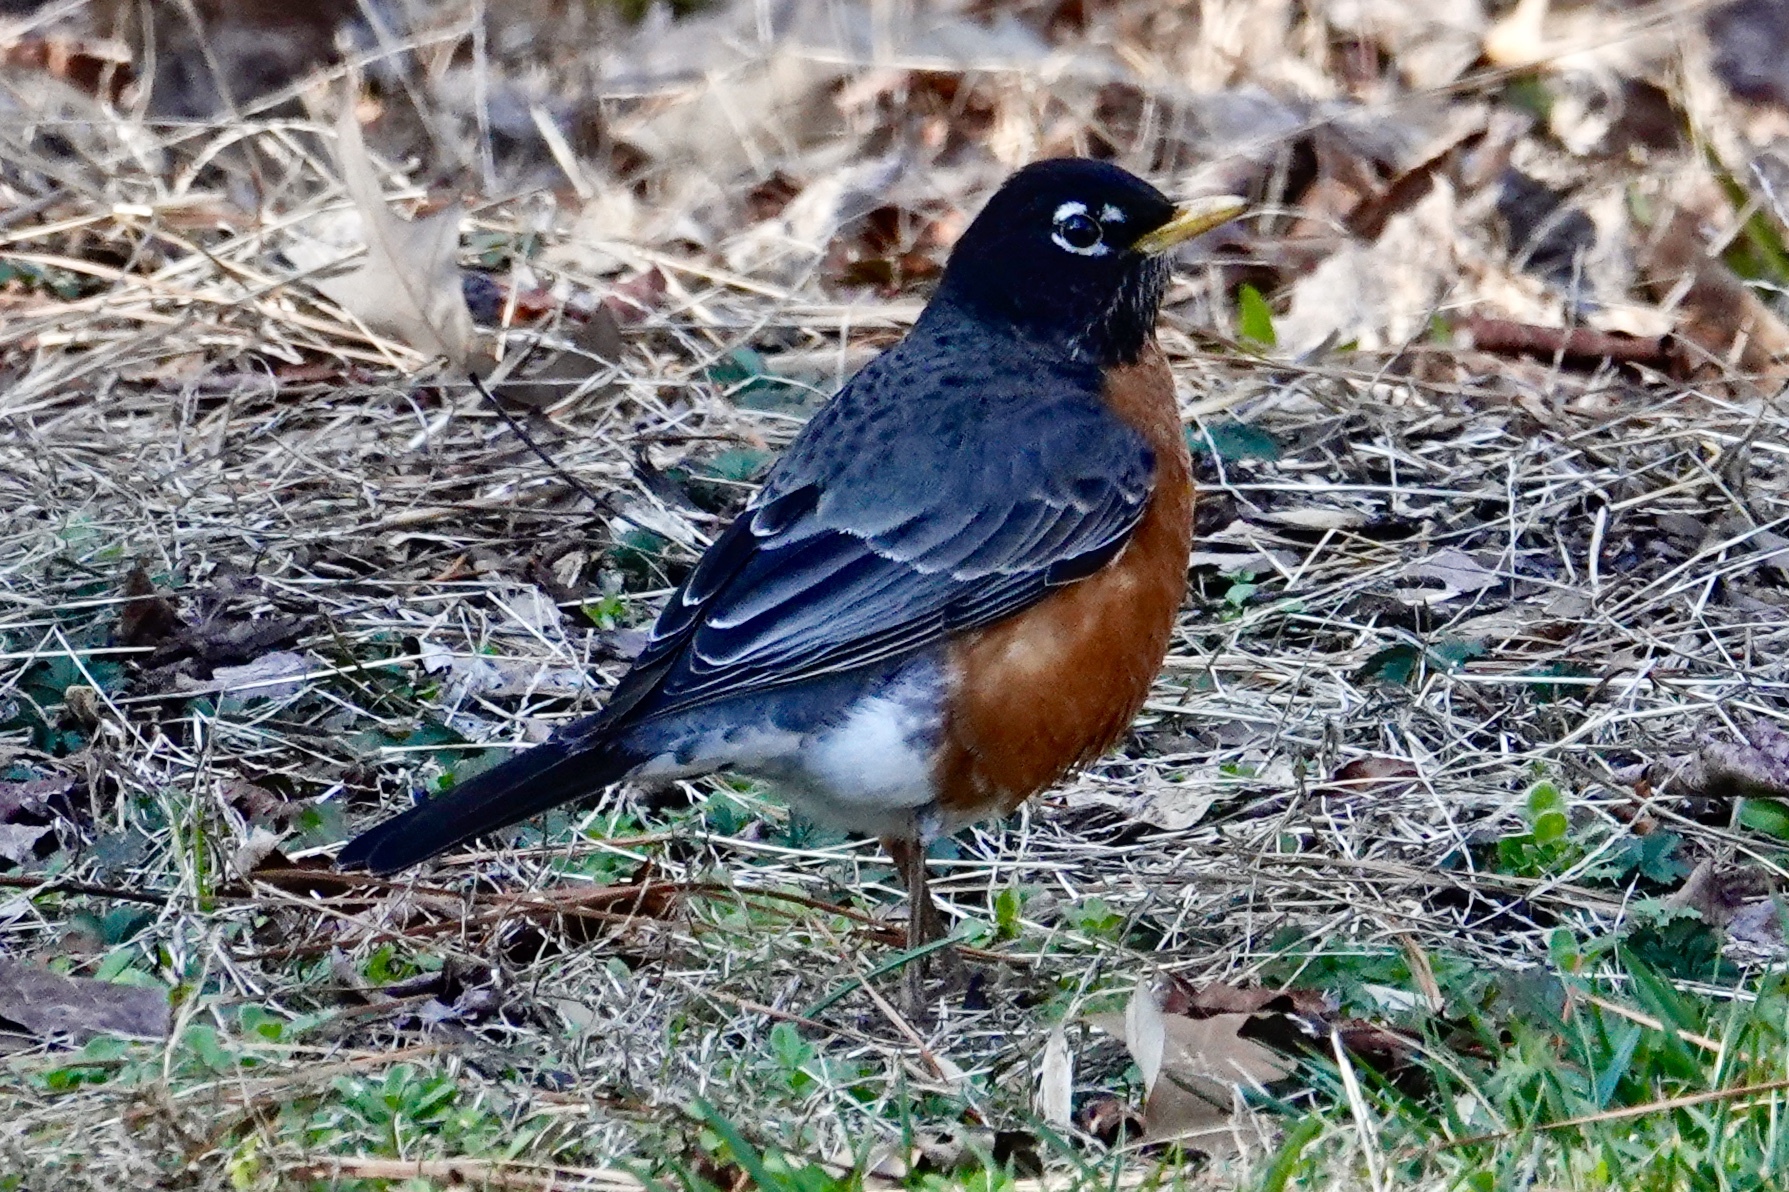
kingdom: Animalia
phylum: Chordata
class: Aves
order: Passeriformes
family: Turdidae
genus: Turdus
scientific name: Turdus migratorius
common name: American robin
